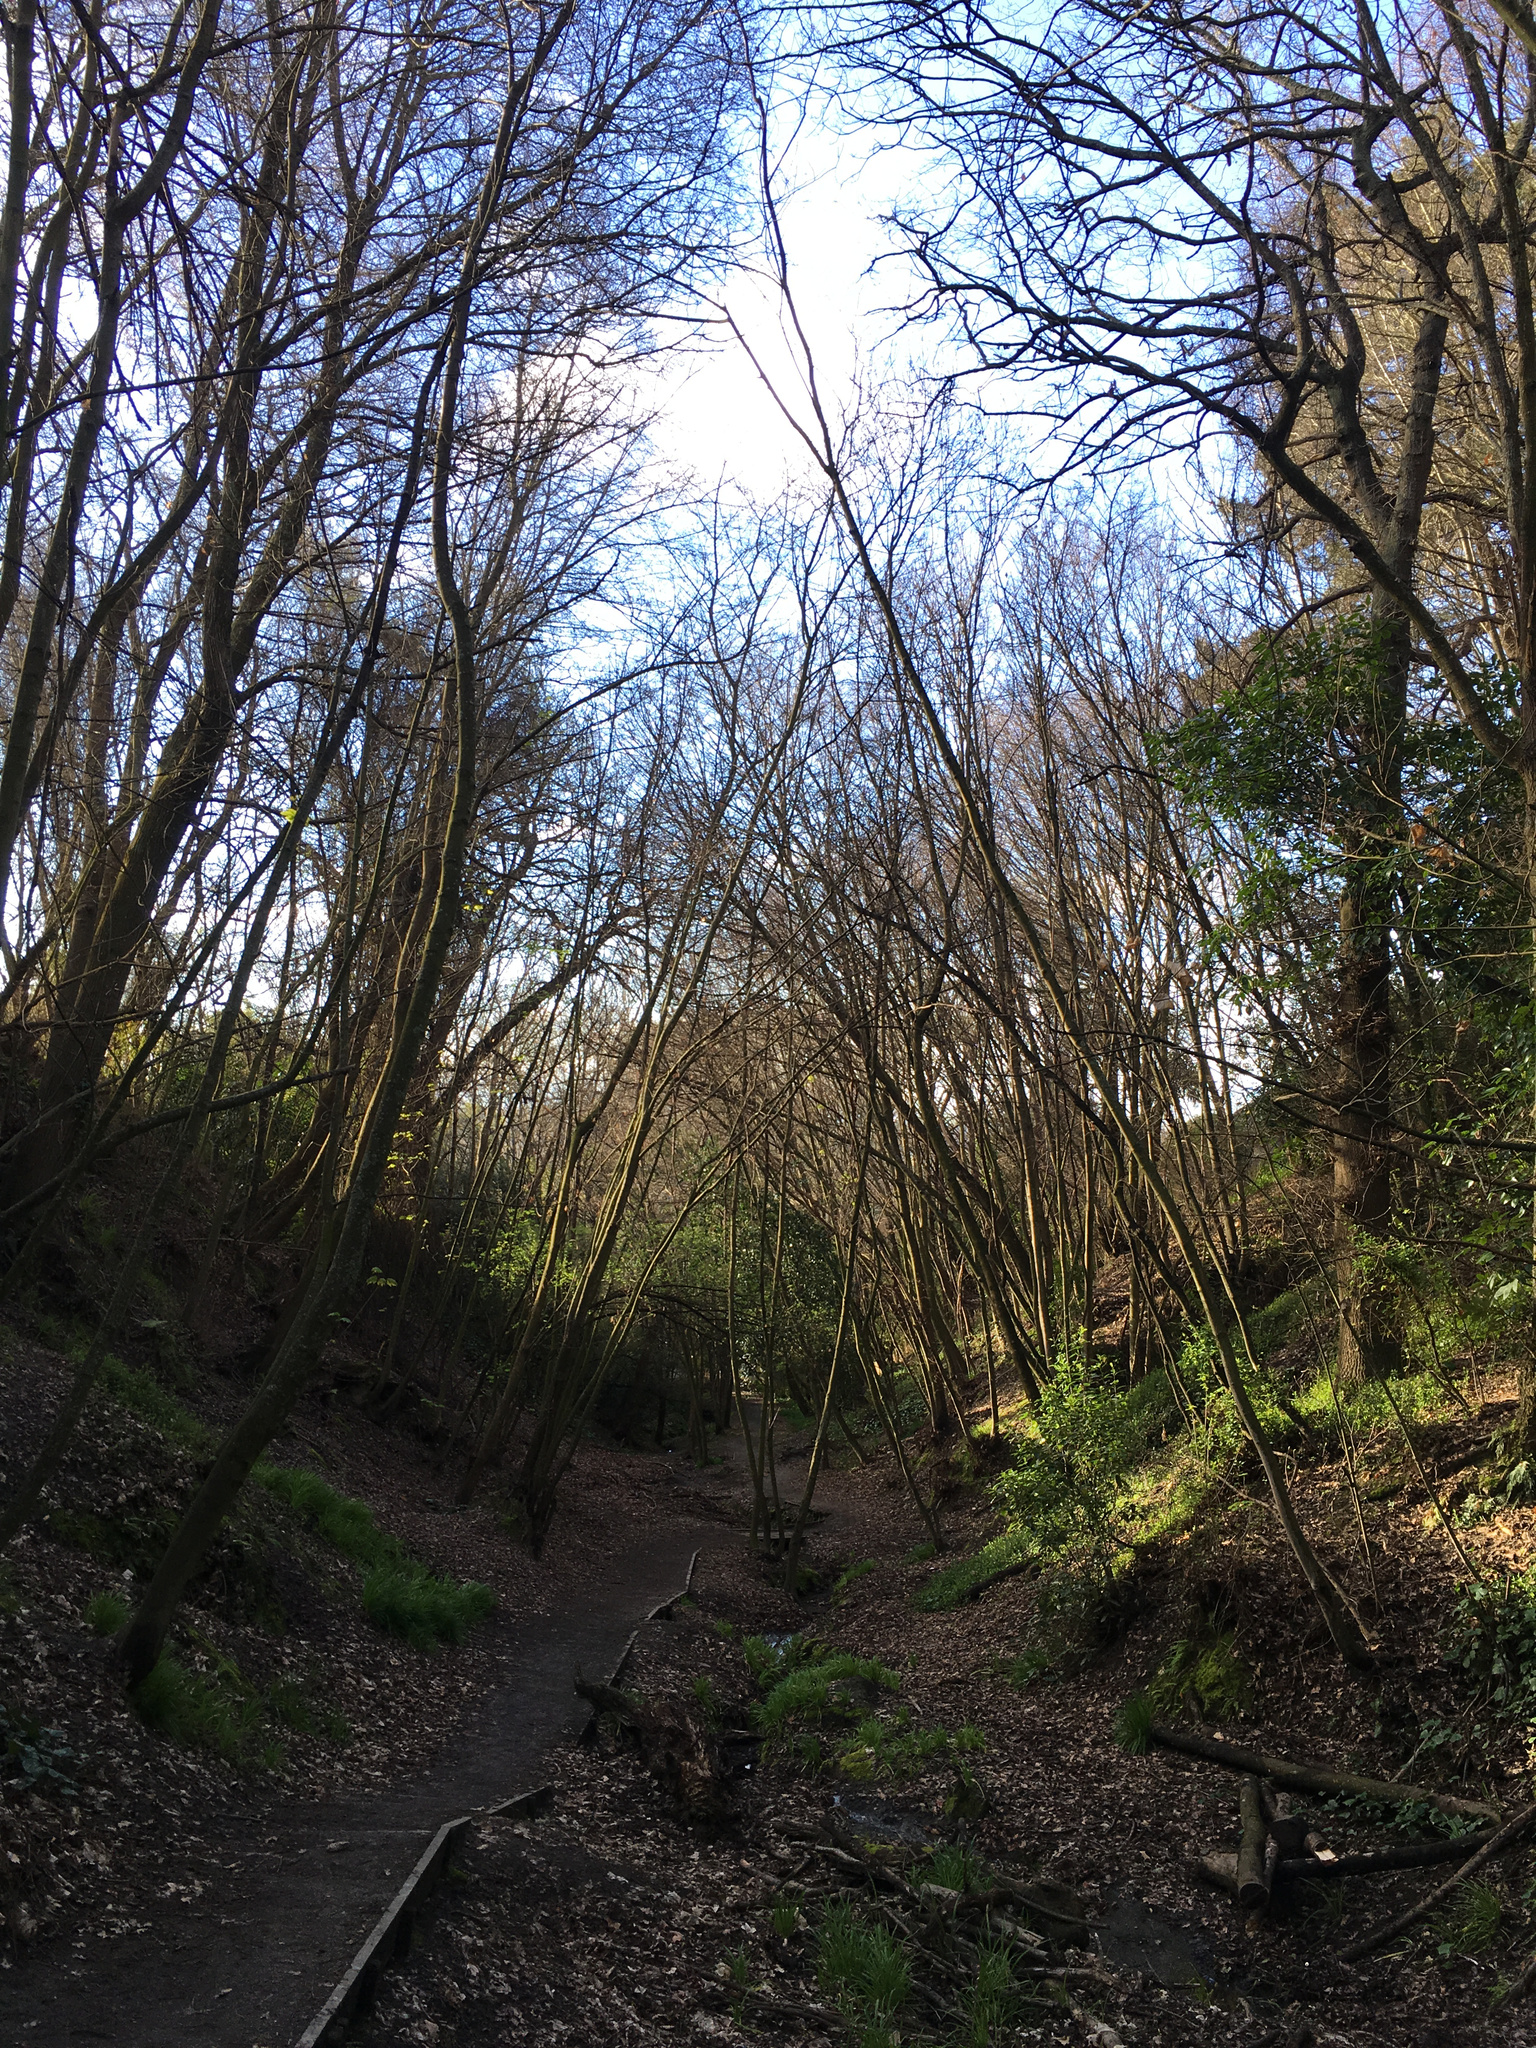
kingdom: Plantae
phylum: Tracheophyta
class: Magnoliopsida
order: Sapindales
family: Sapindaceae
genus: Acer
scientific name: Acer pseudoplatanus
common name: Sycamore
